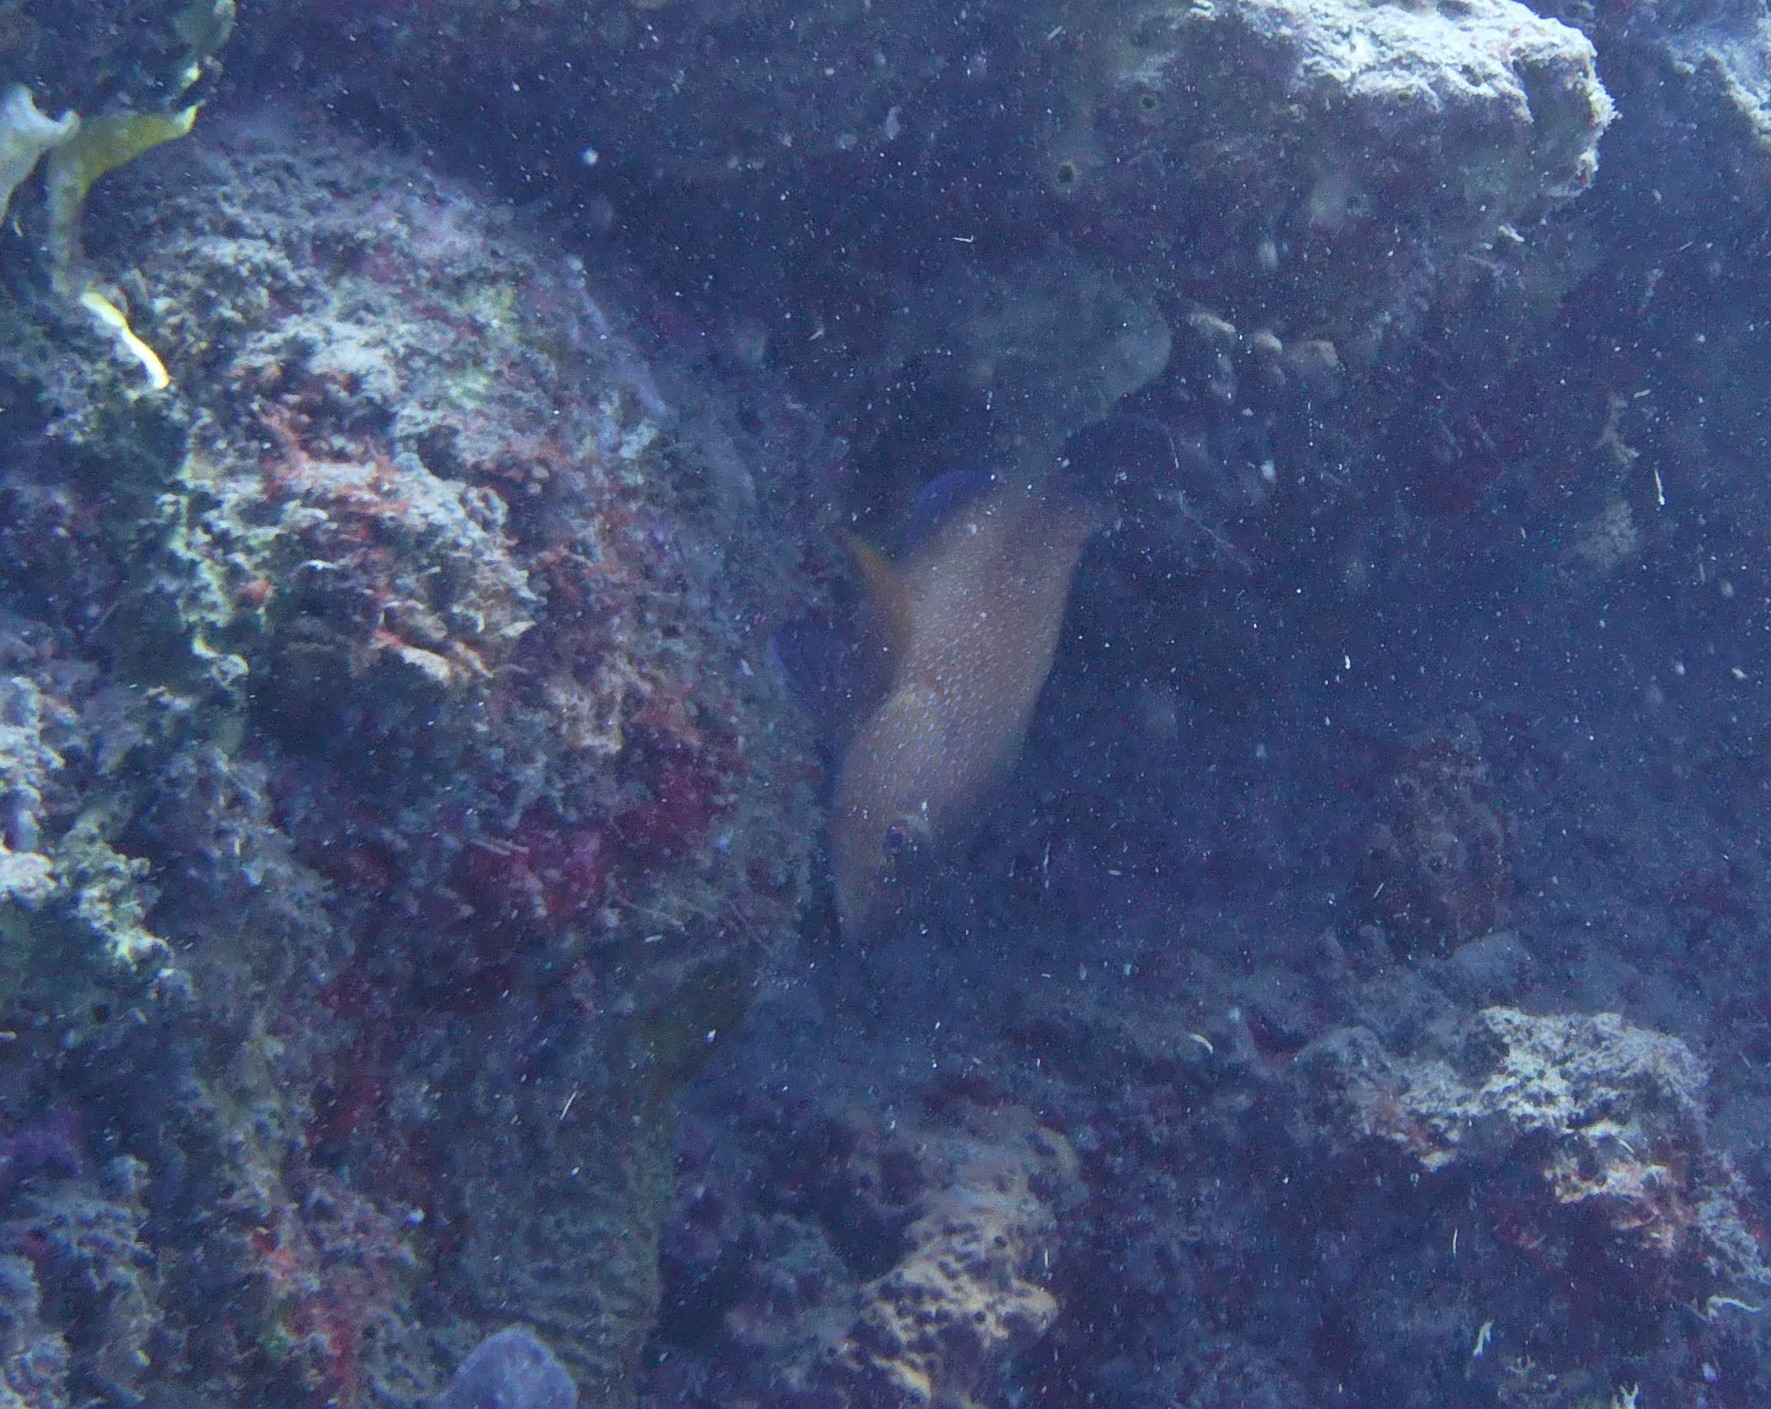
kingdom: Animalia
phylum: Chordata
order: Perciformes
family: Serranidae
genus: Cephalopholis
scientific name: Cephalopholis fulva
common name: Butterfish
